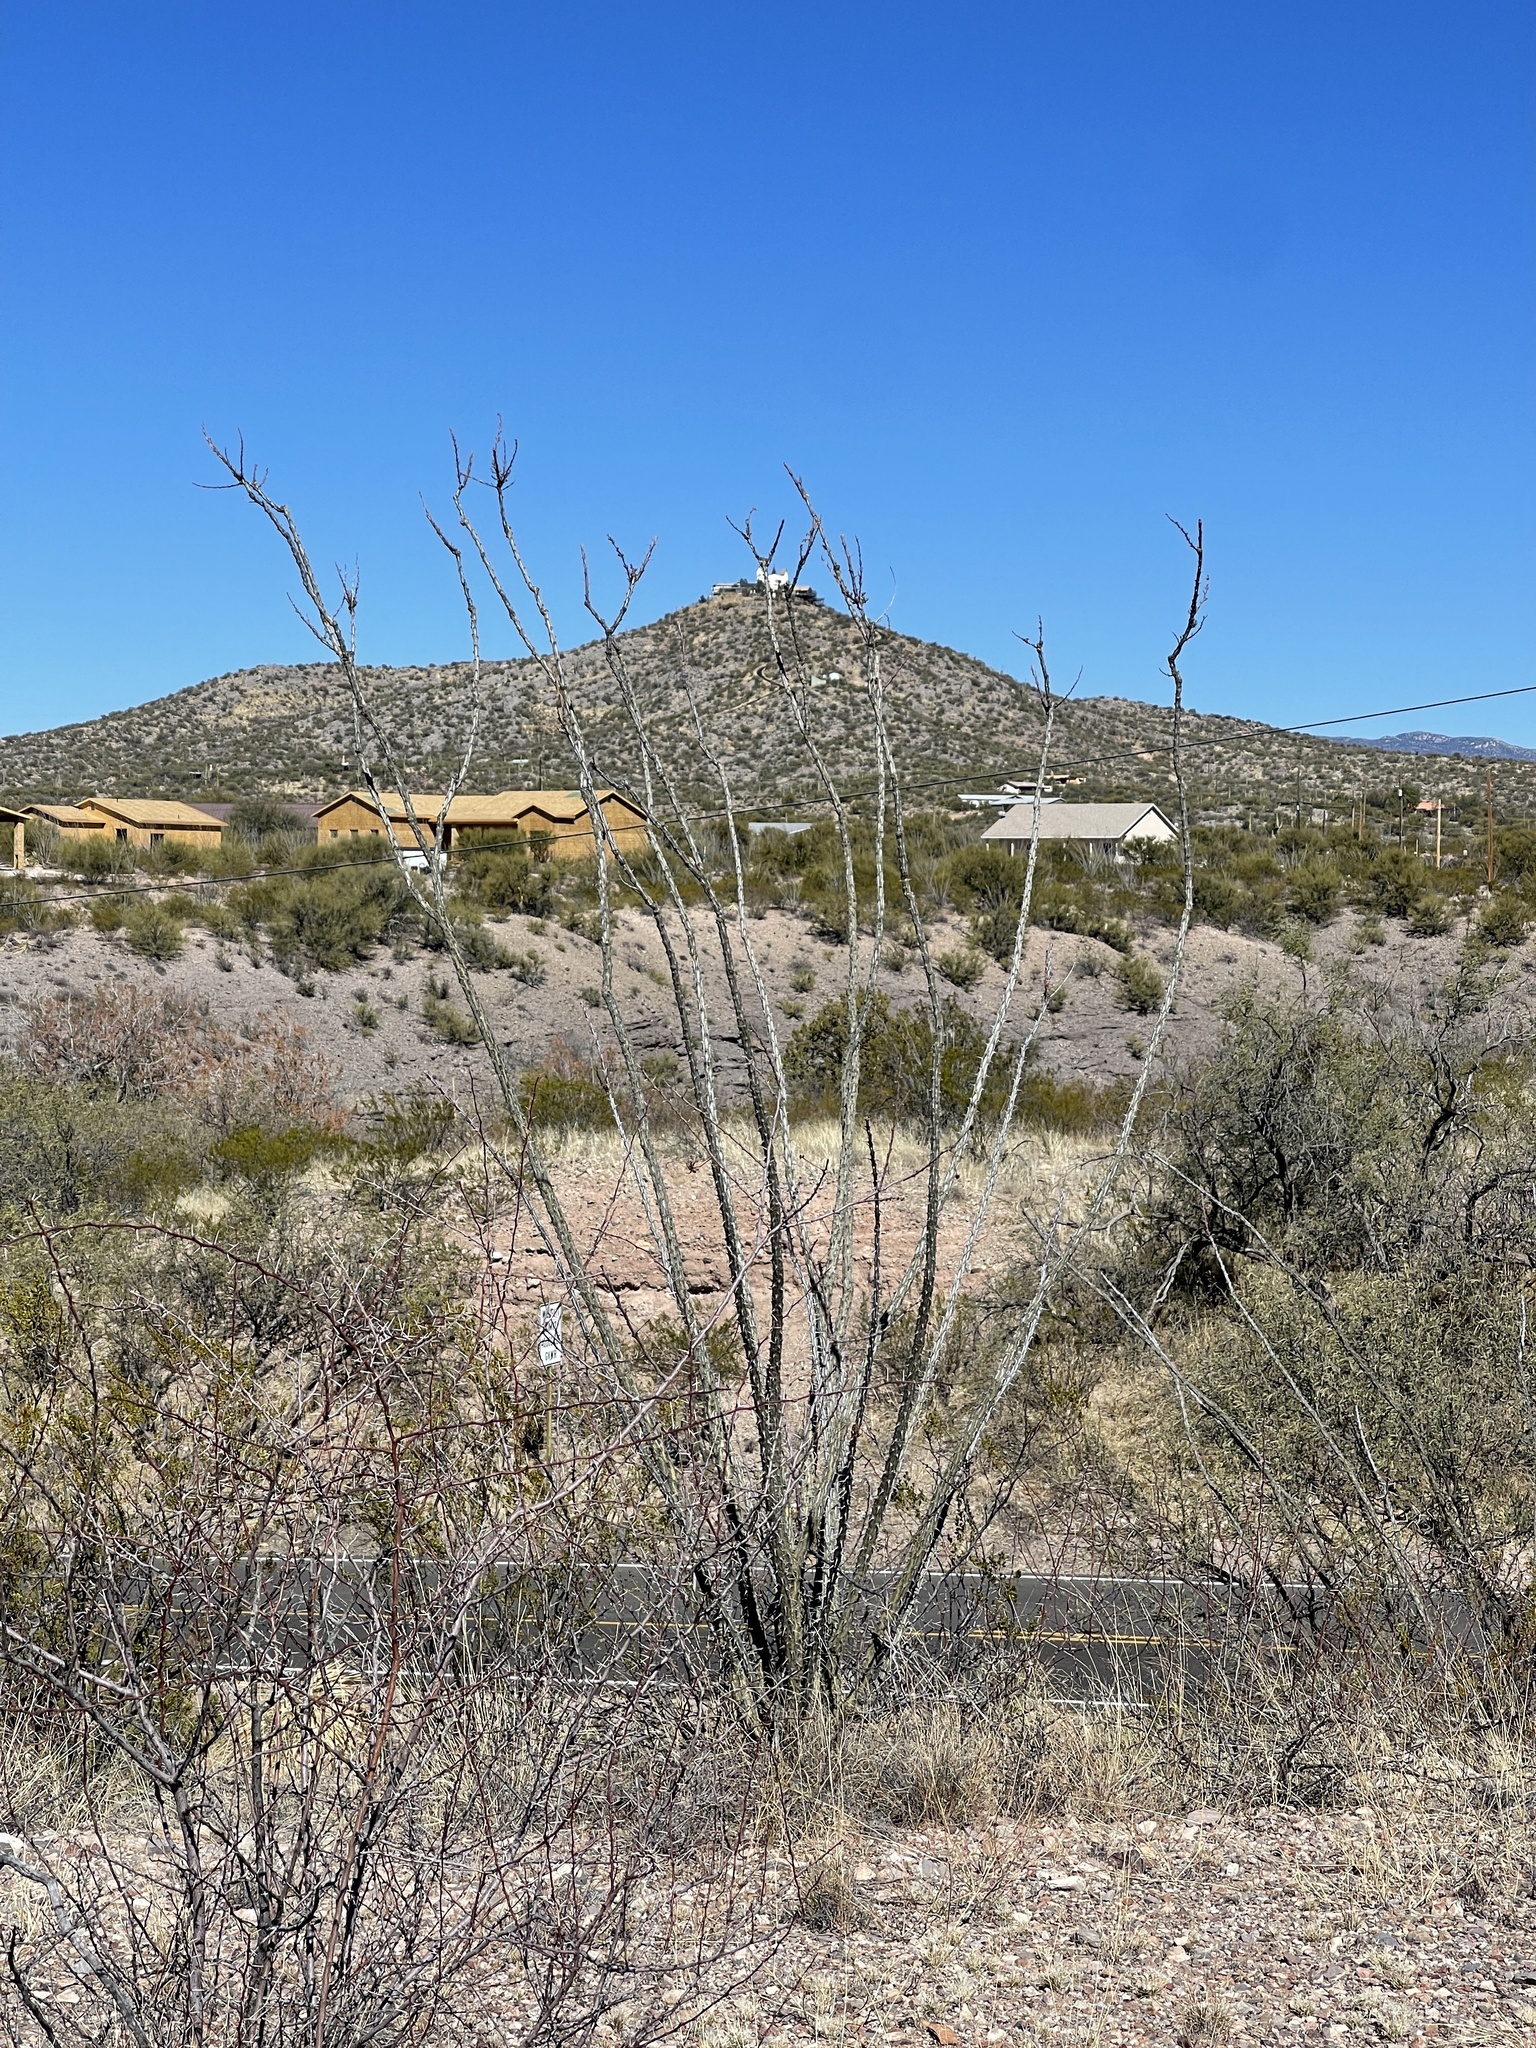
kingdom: Plantae
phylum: Tracheophyta
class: Magnoliopsida
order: Ericales
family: Fouquieriaceae
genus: Fouquieria
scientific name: Fouquieria splendens
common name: Vine-cactus
